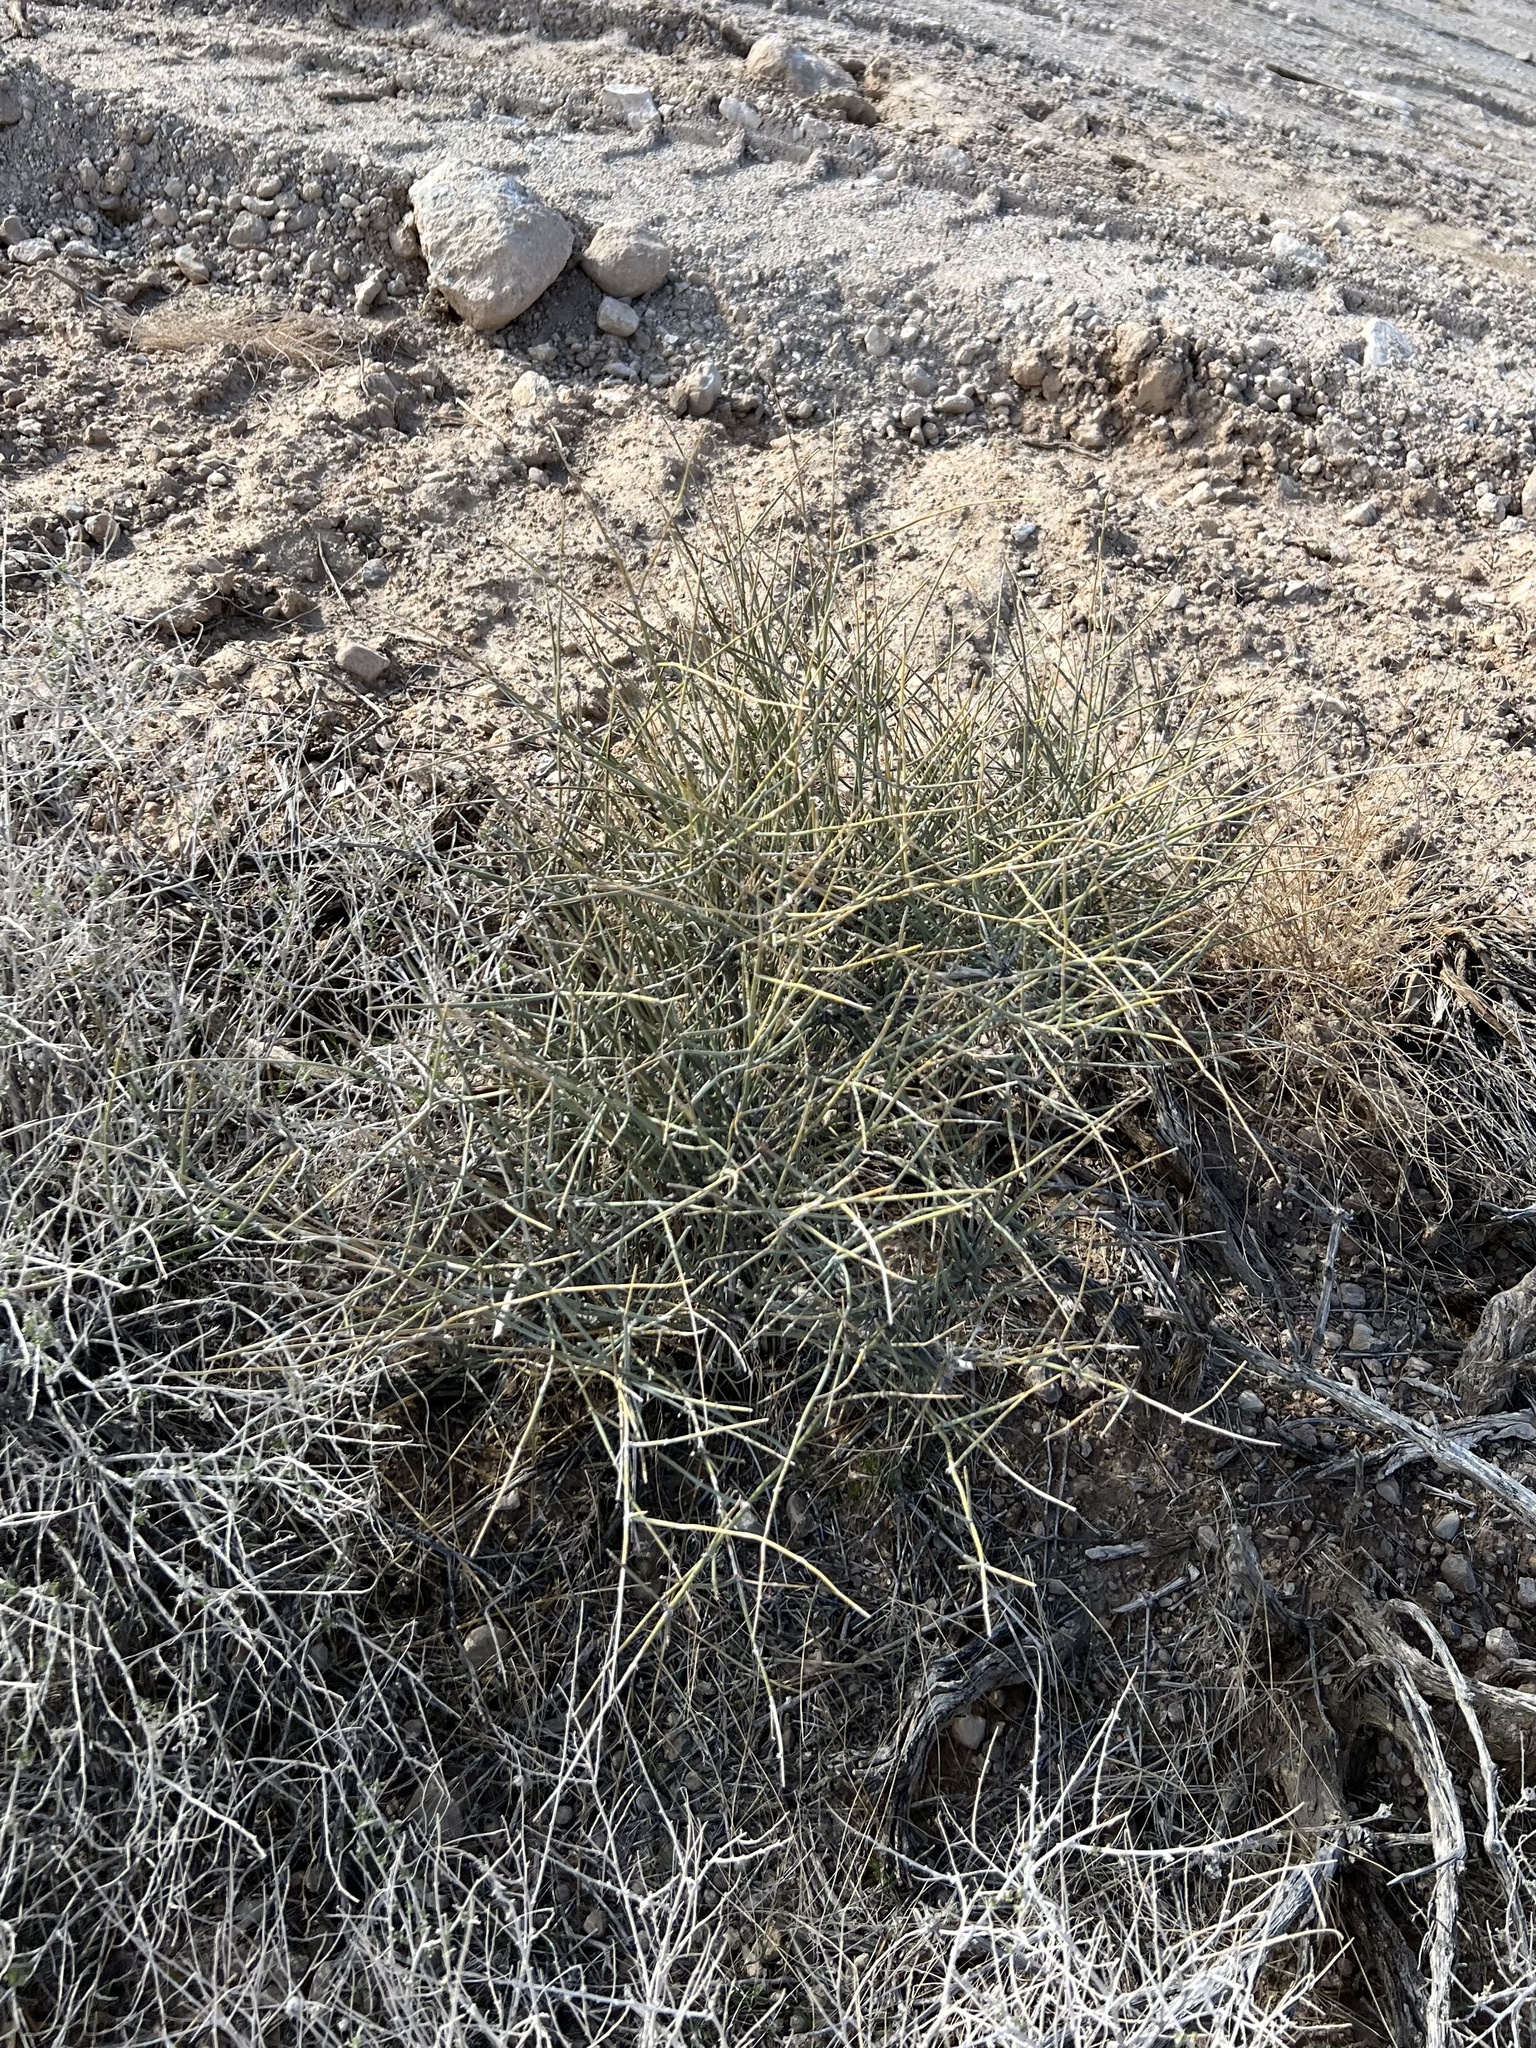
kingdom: Plantae
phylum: Tracheophyta
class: Gnetopsida
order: Ephedrales
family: Ephedraceae
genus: Ephedra
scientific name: Ephedra nevadensis
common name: Gray ephedra
